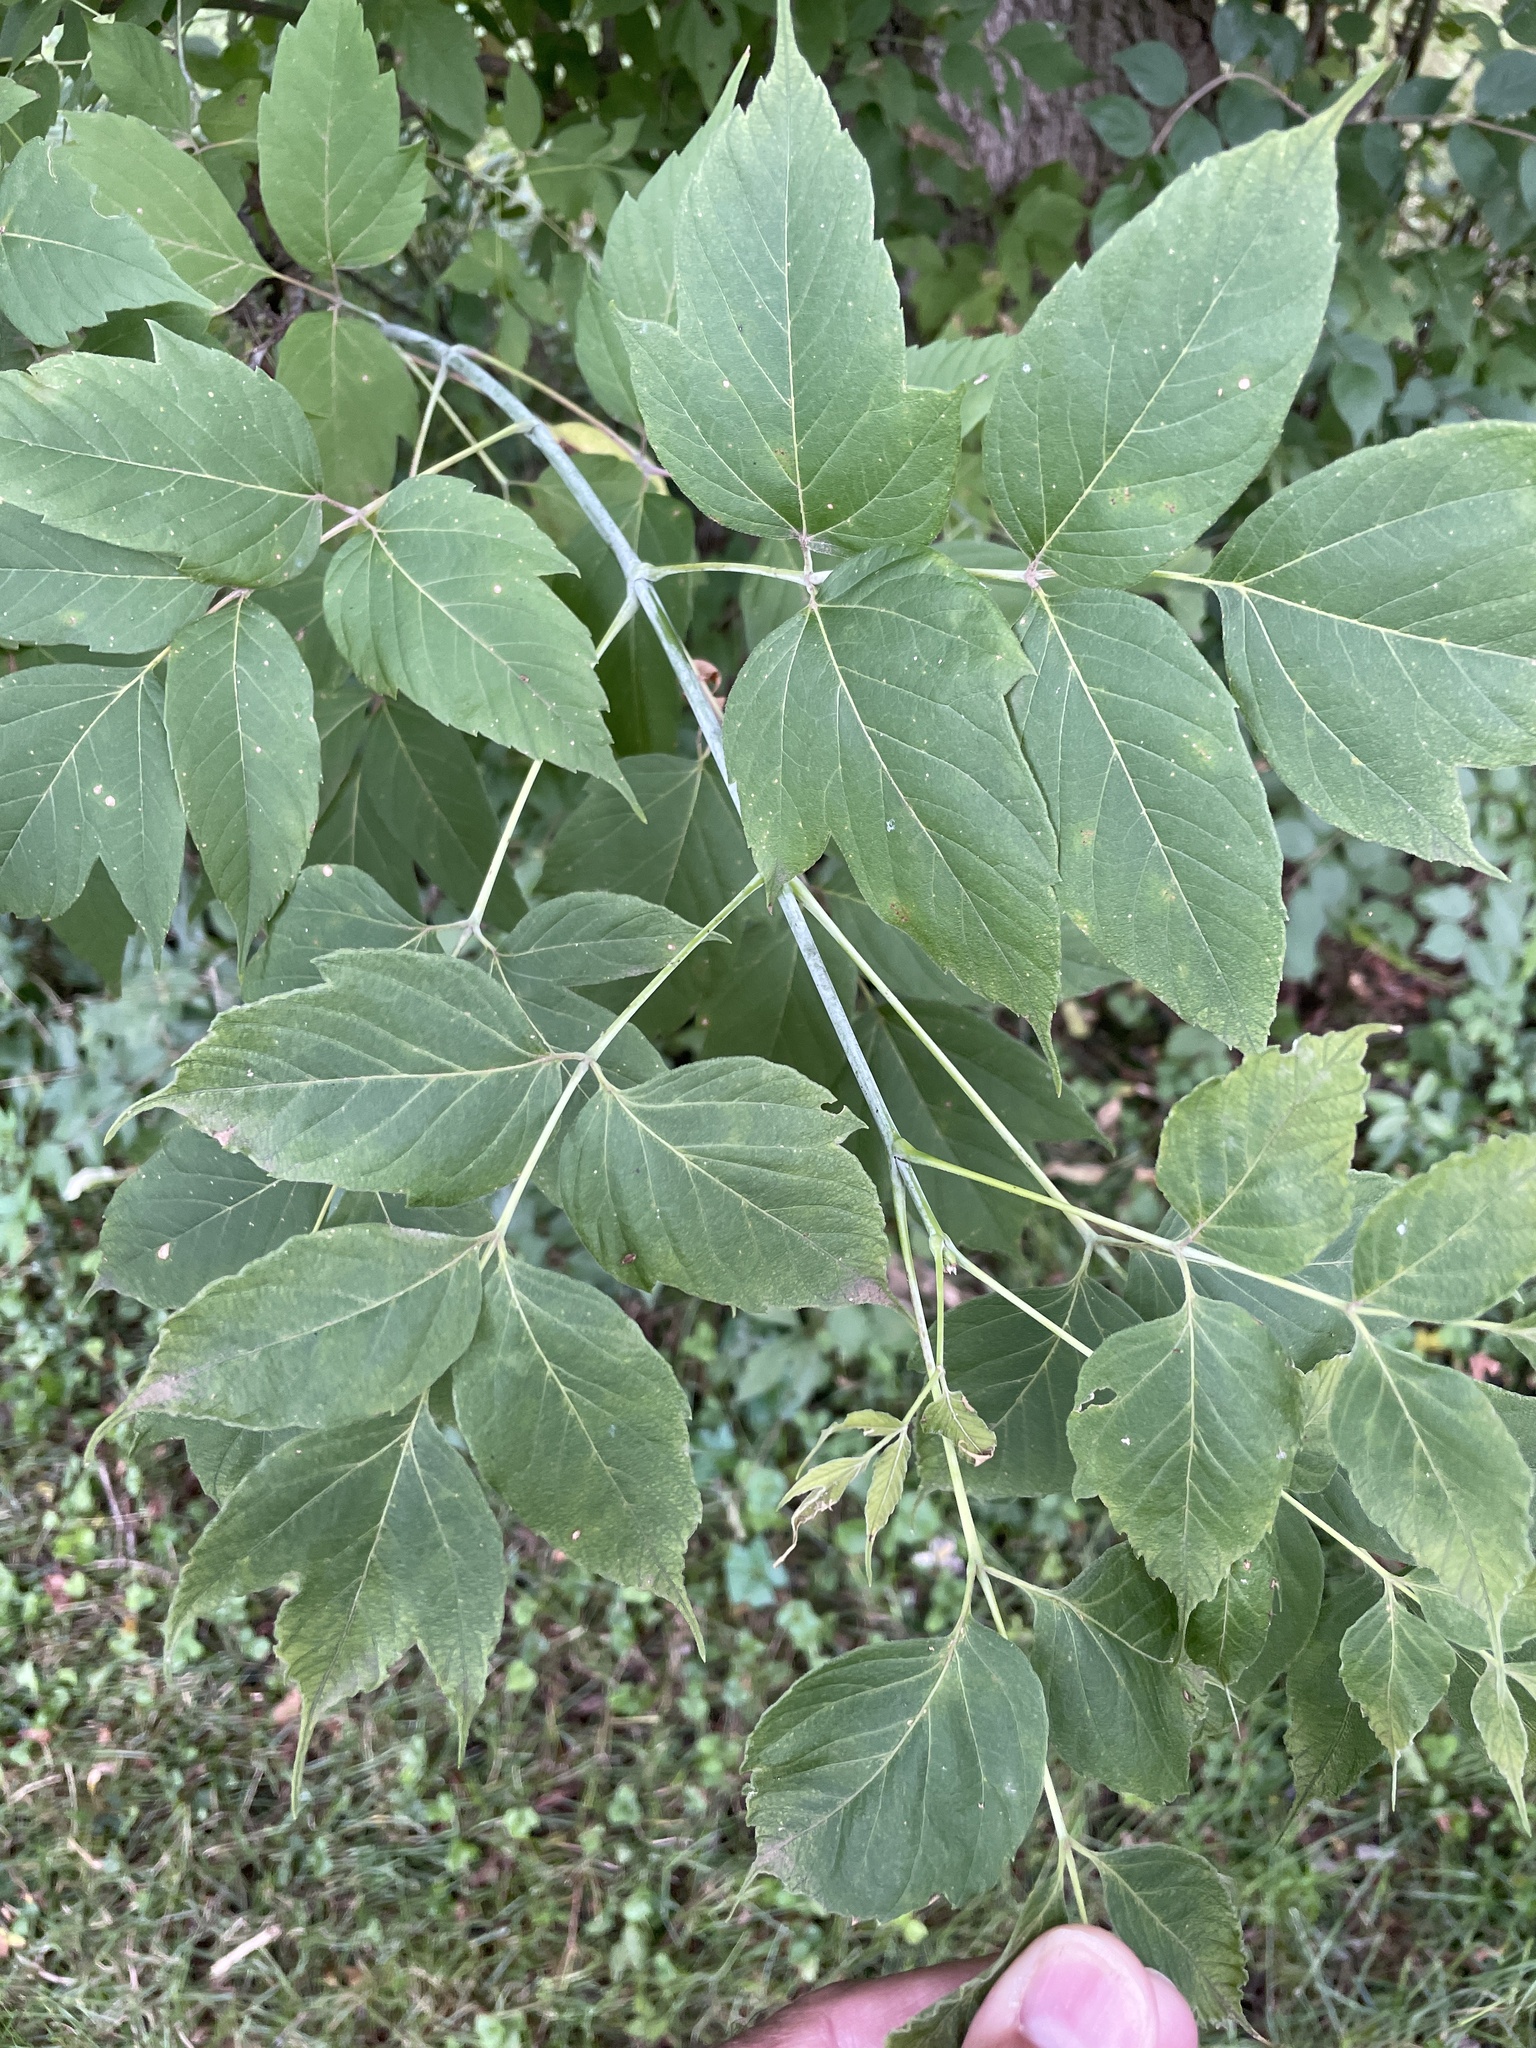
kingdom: Plantae
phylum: Tracheophyta
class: Magnoliopsida
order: Sapindales
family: Sapindaceae
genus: Acer
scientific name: Acer negundo
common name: Ashleaf maple
